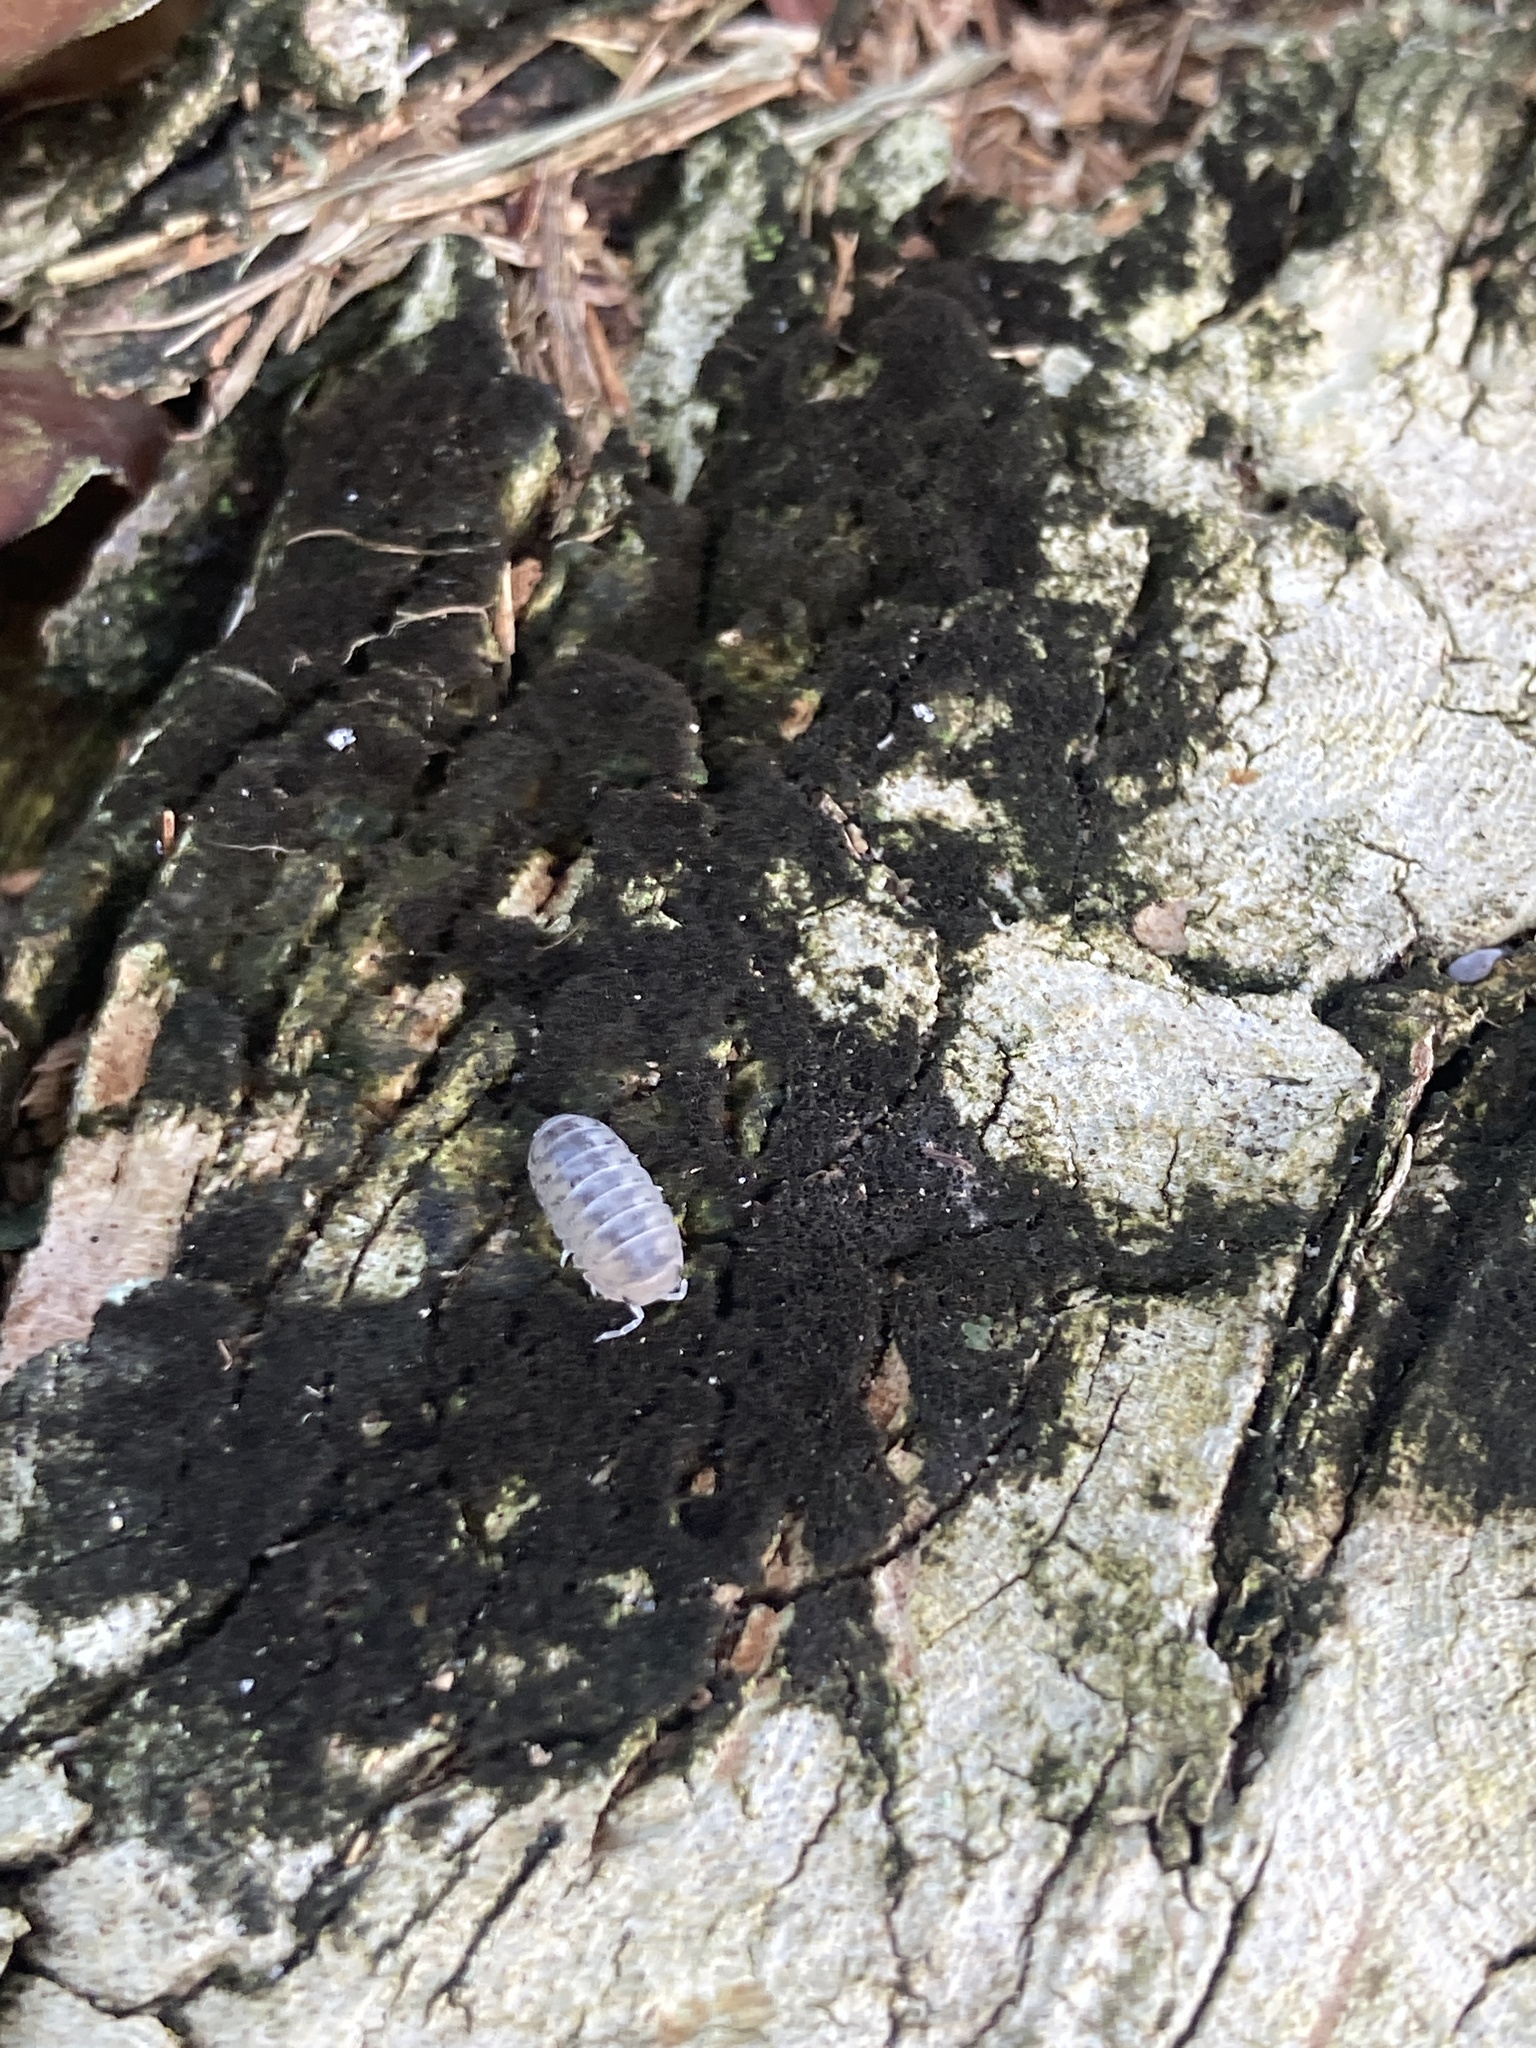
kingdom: Animalia
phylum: Arthropoda
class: Malacostraca
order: Isopoda
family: Armadillidae
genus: Venezillo
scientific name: Venezillo parvus
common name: Pillbug
